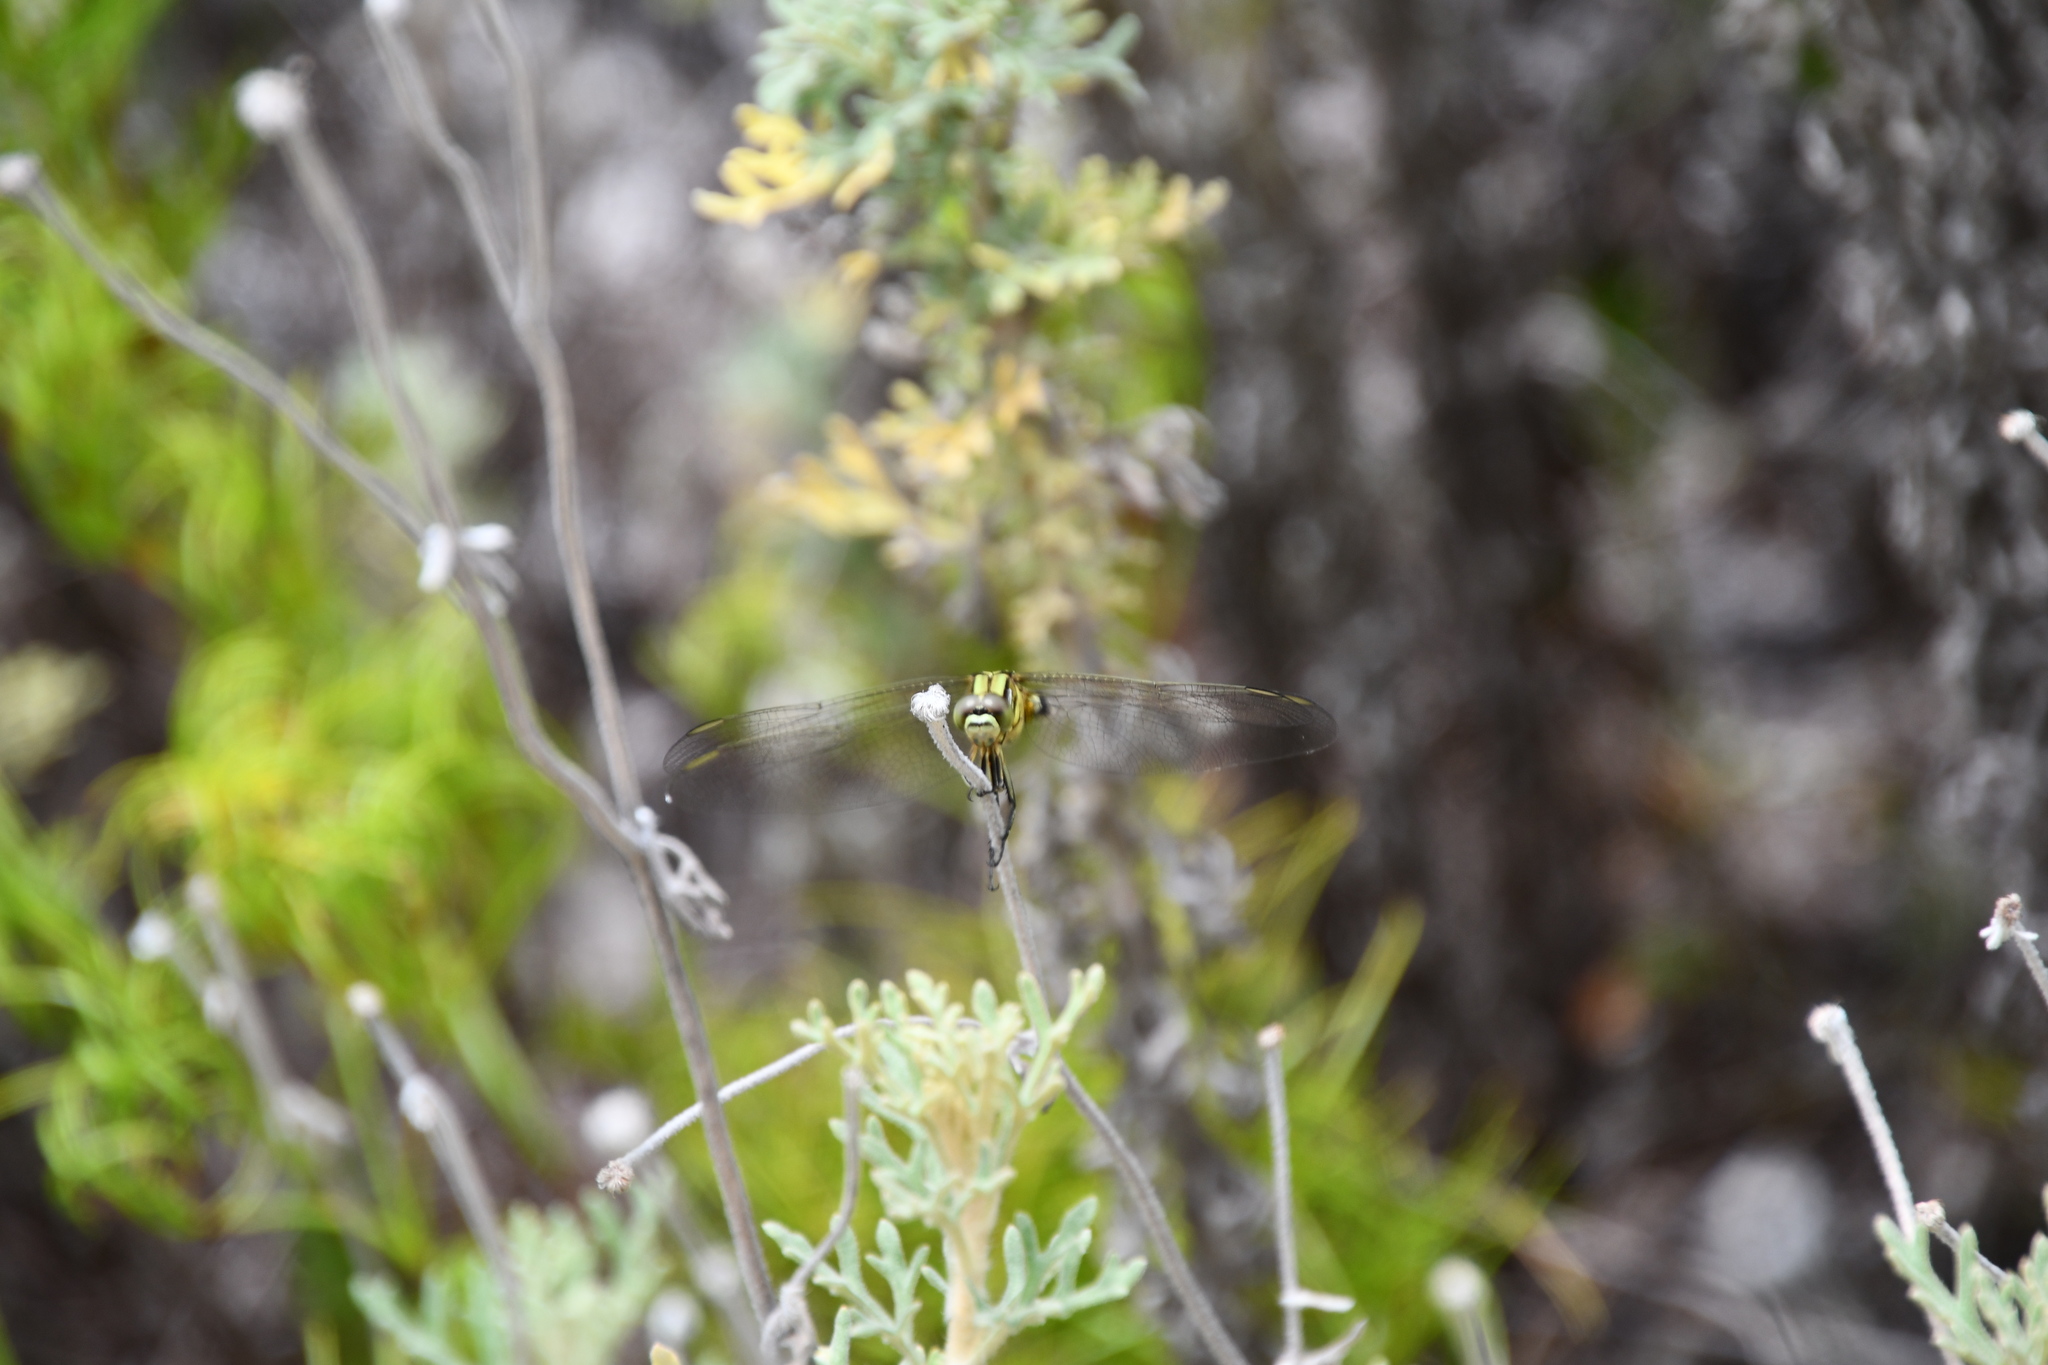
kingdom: Animalia
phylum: Arthropoda
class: Insecta
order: Odonata
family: Libellulidae
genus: Orthetrum
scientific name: Orthetrum sabina
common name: Slender skimmer
